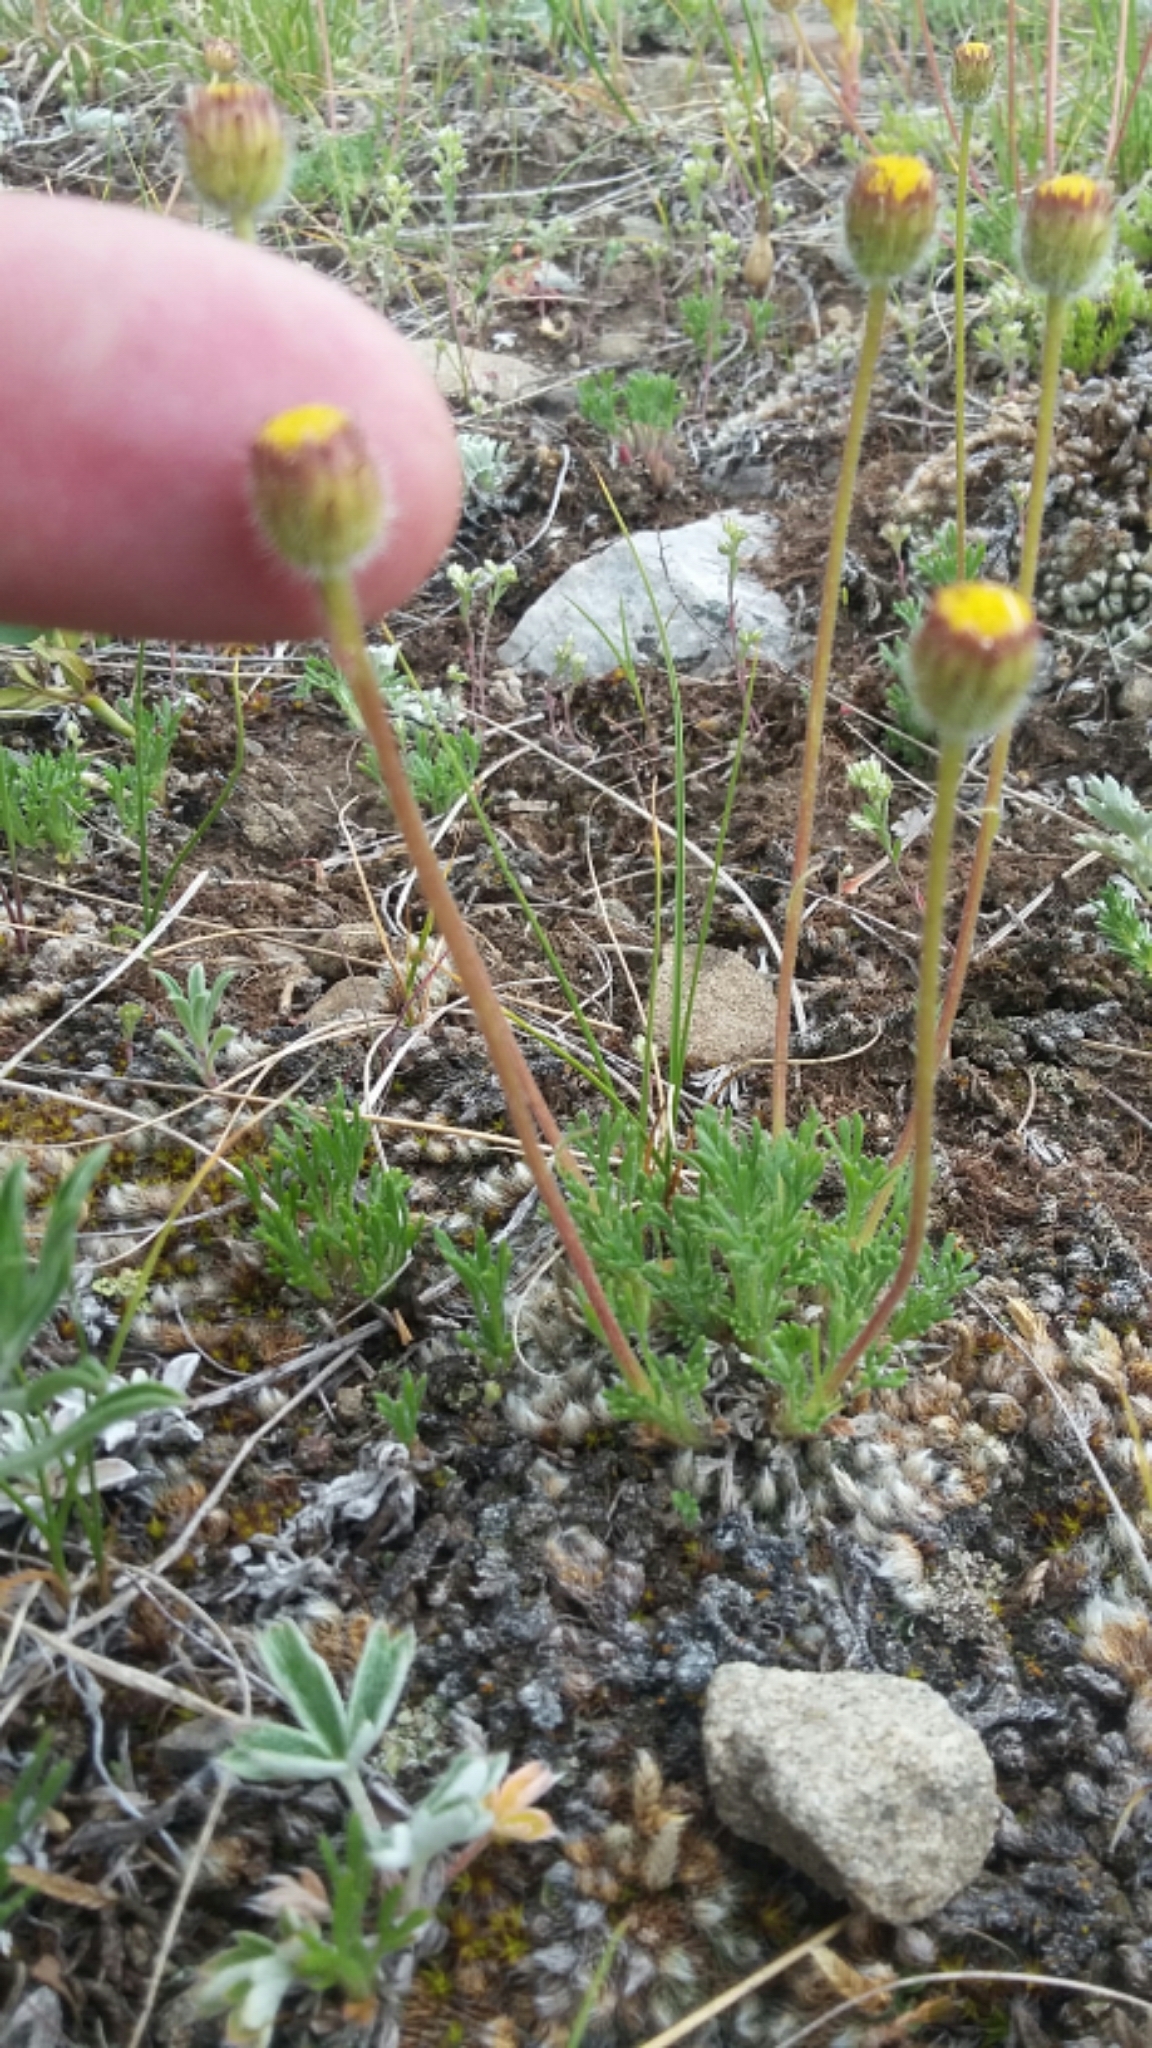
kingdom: Plantae
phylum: Tracheophyta
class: Magnoliopsida
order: Asterales
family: Asteraceae
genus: Erigeron
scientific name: Erigeron compositus
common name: Dwarf mountain fleabane
